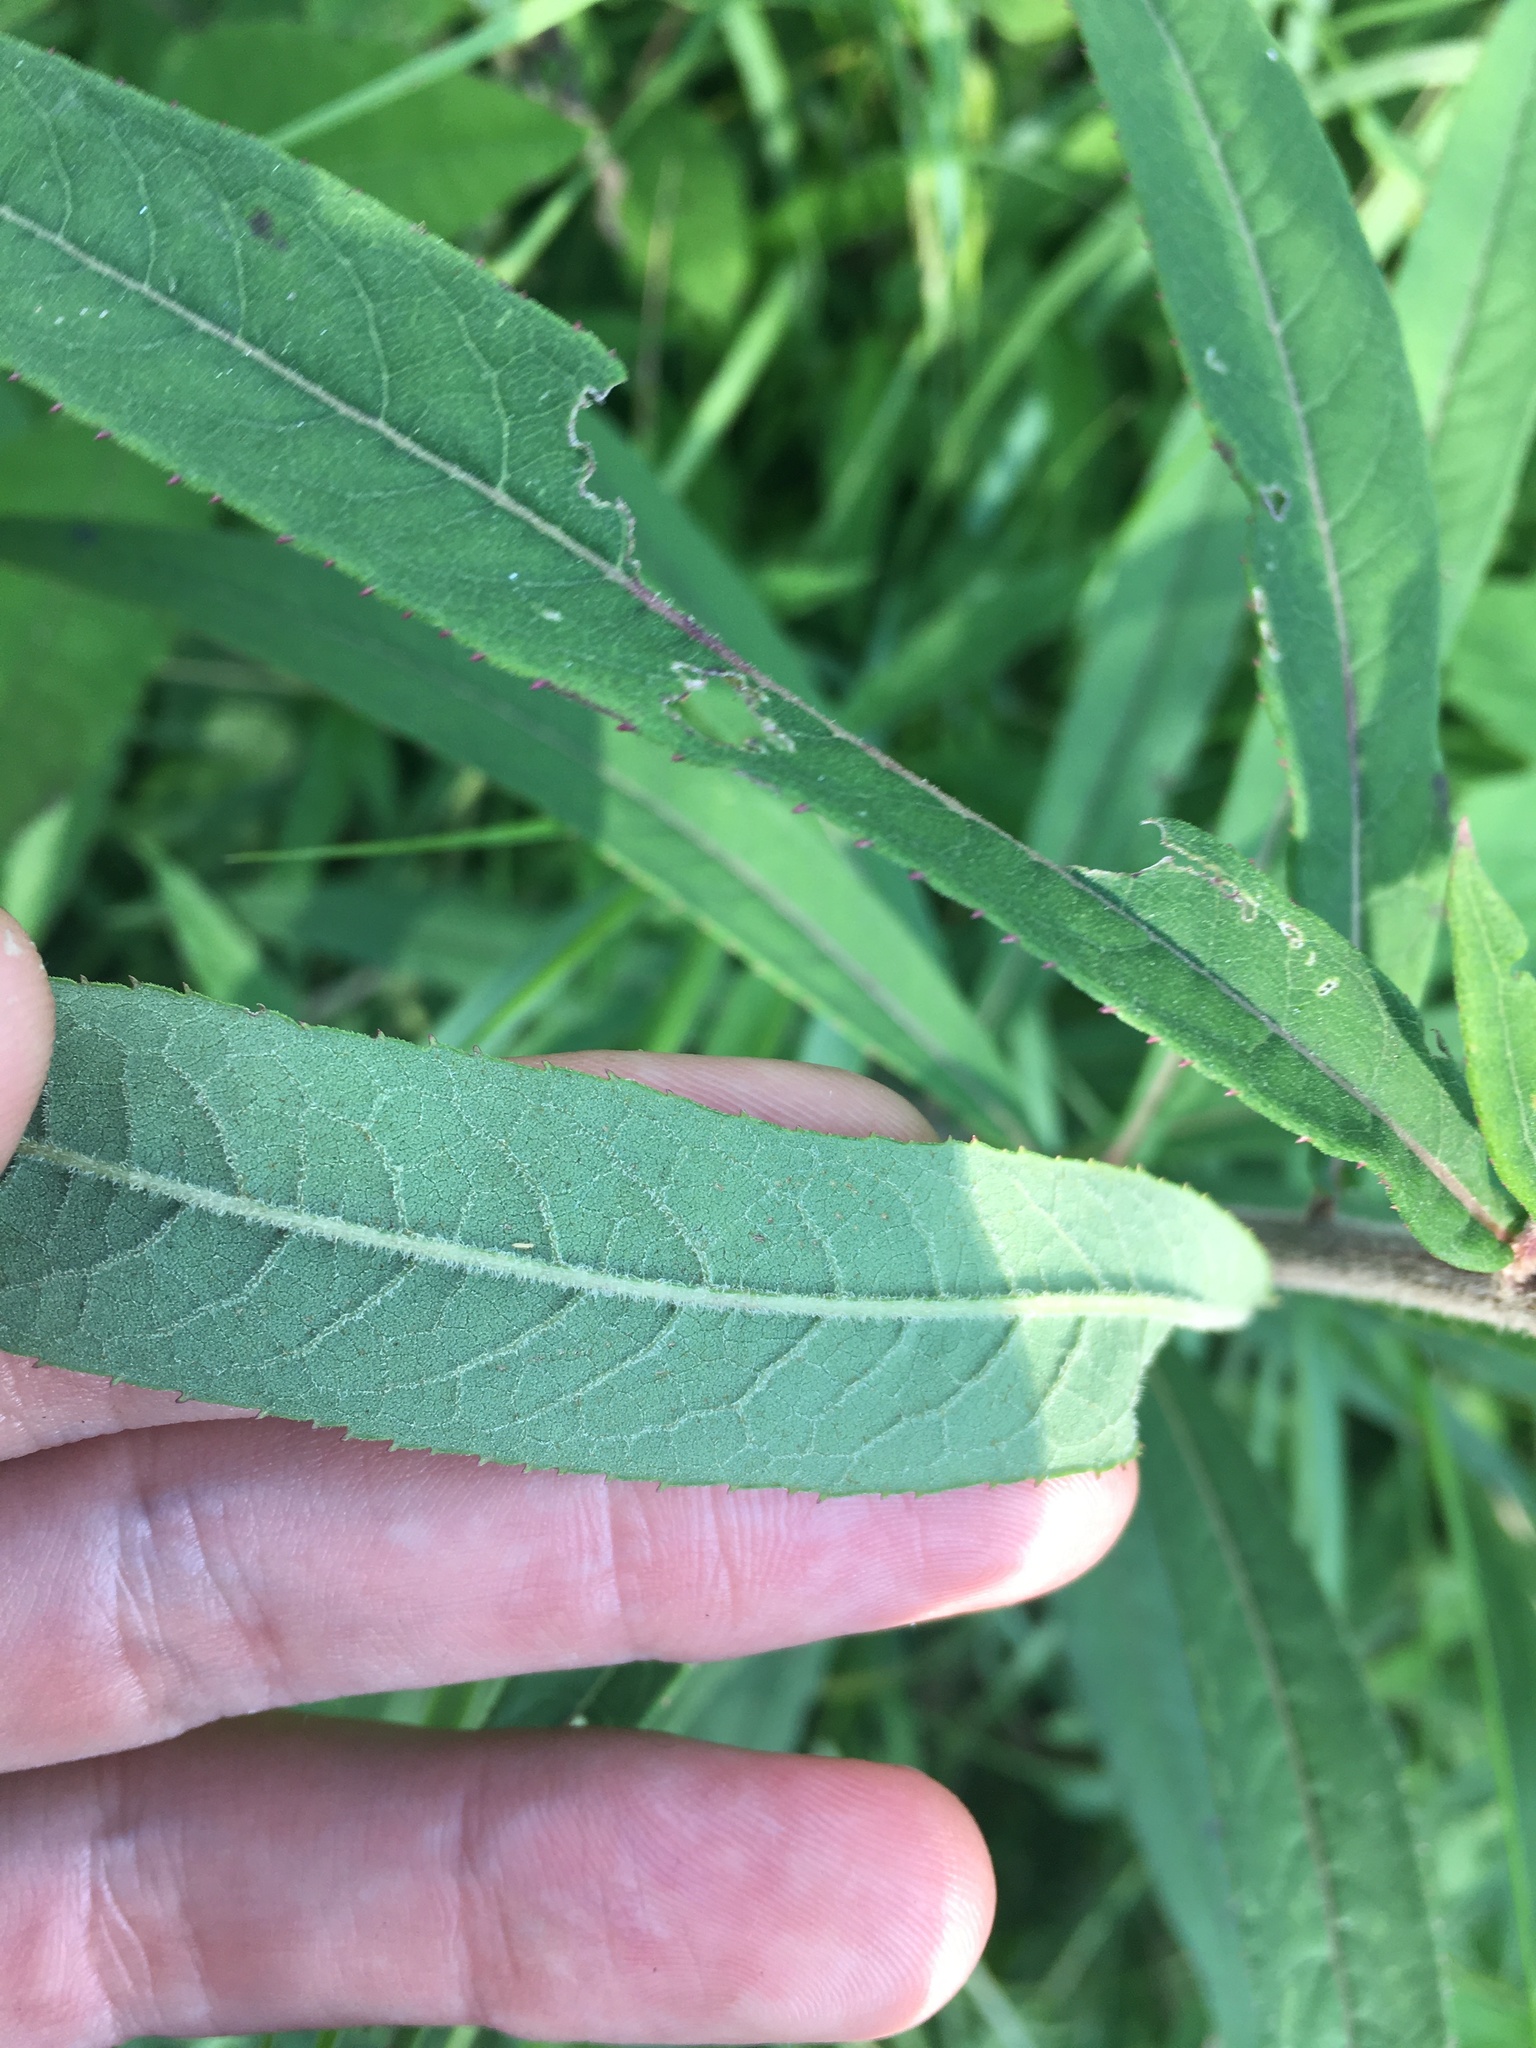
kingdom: Plantae
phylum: Tracheophyta
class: Magnoliopsida
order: Asterales
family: Asteraceae
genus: Vernonia
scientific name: Vernonia missurica
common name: Missouri ironweed
